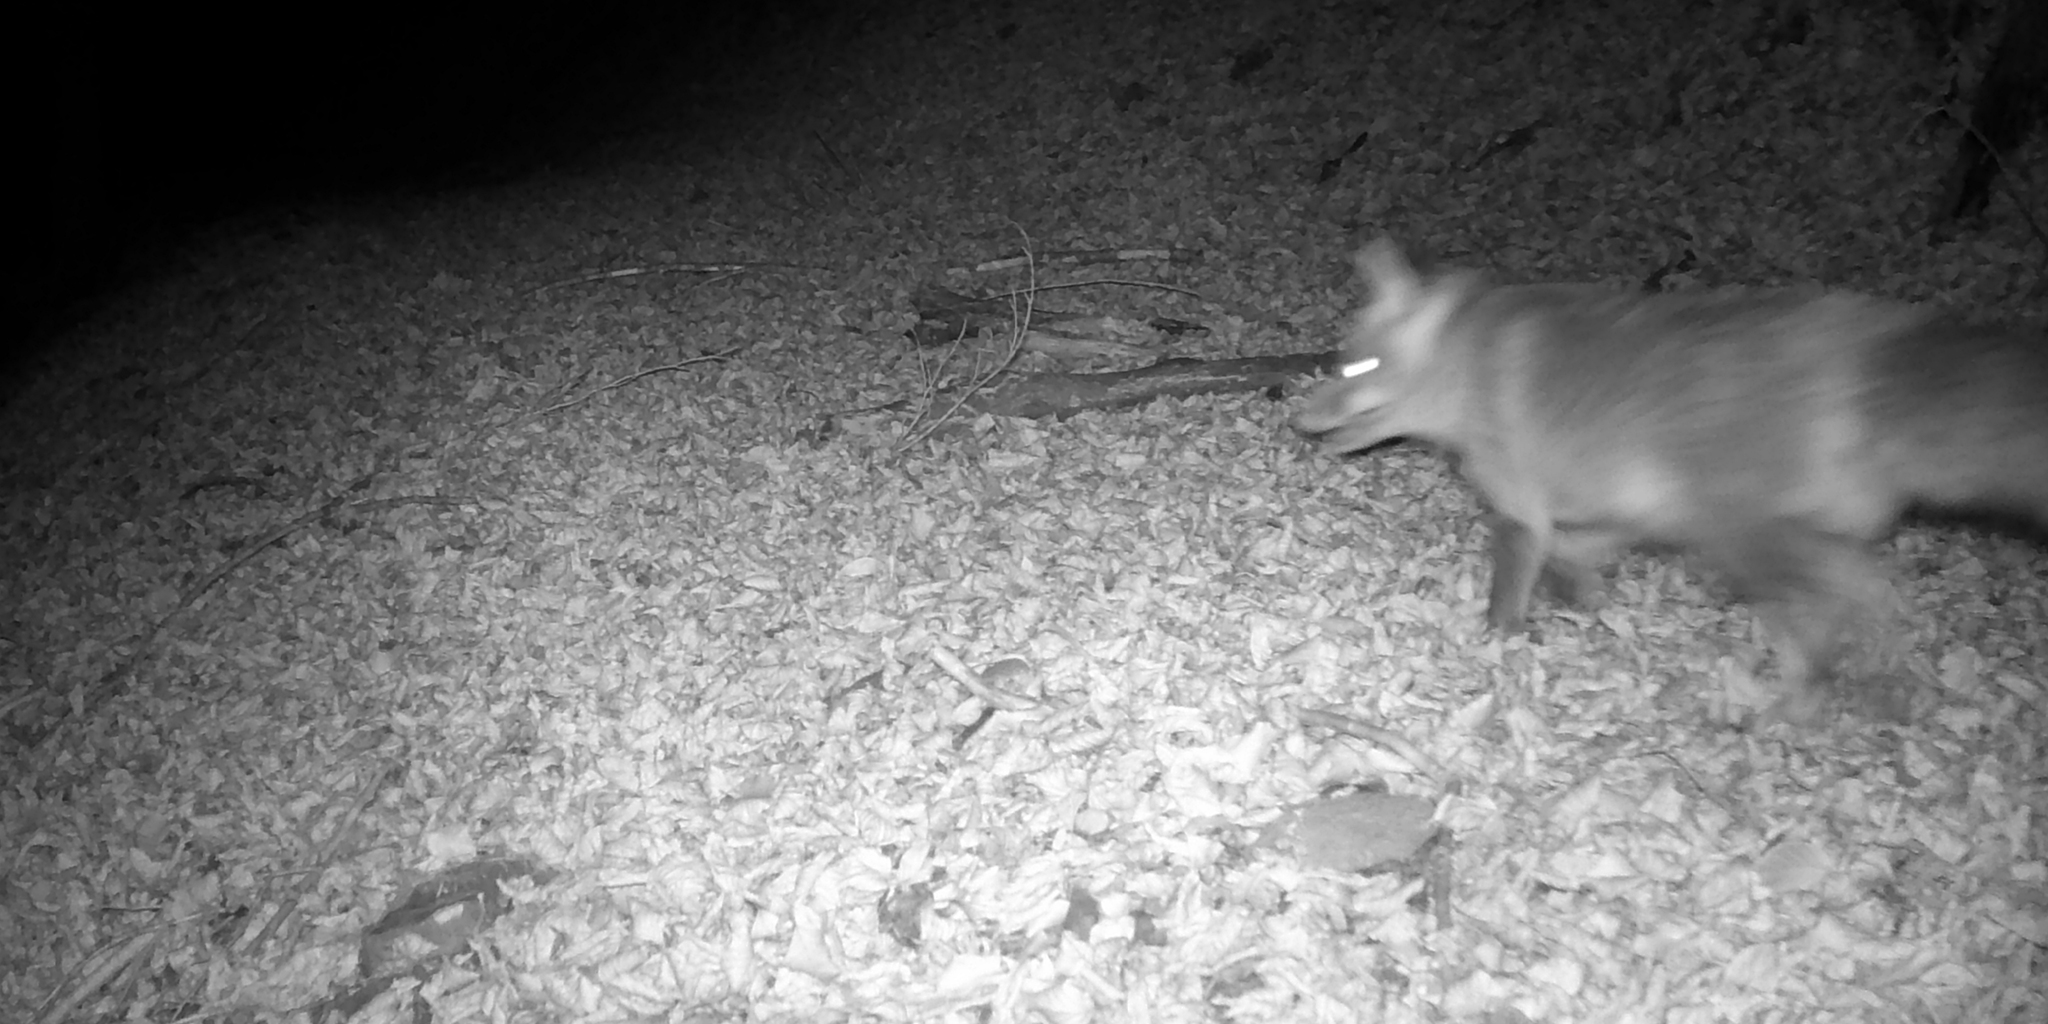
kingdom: Animalia
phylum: Chordata
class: Mammalia
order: Carnivora
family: Canidae
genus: Vulpes
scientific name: Vulpes vulpes
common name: Red fox
